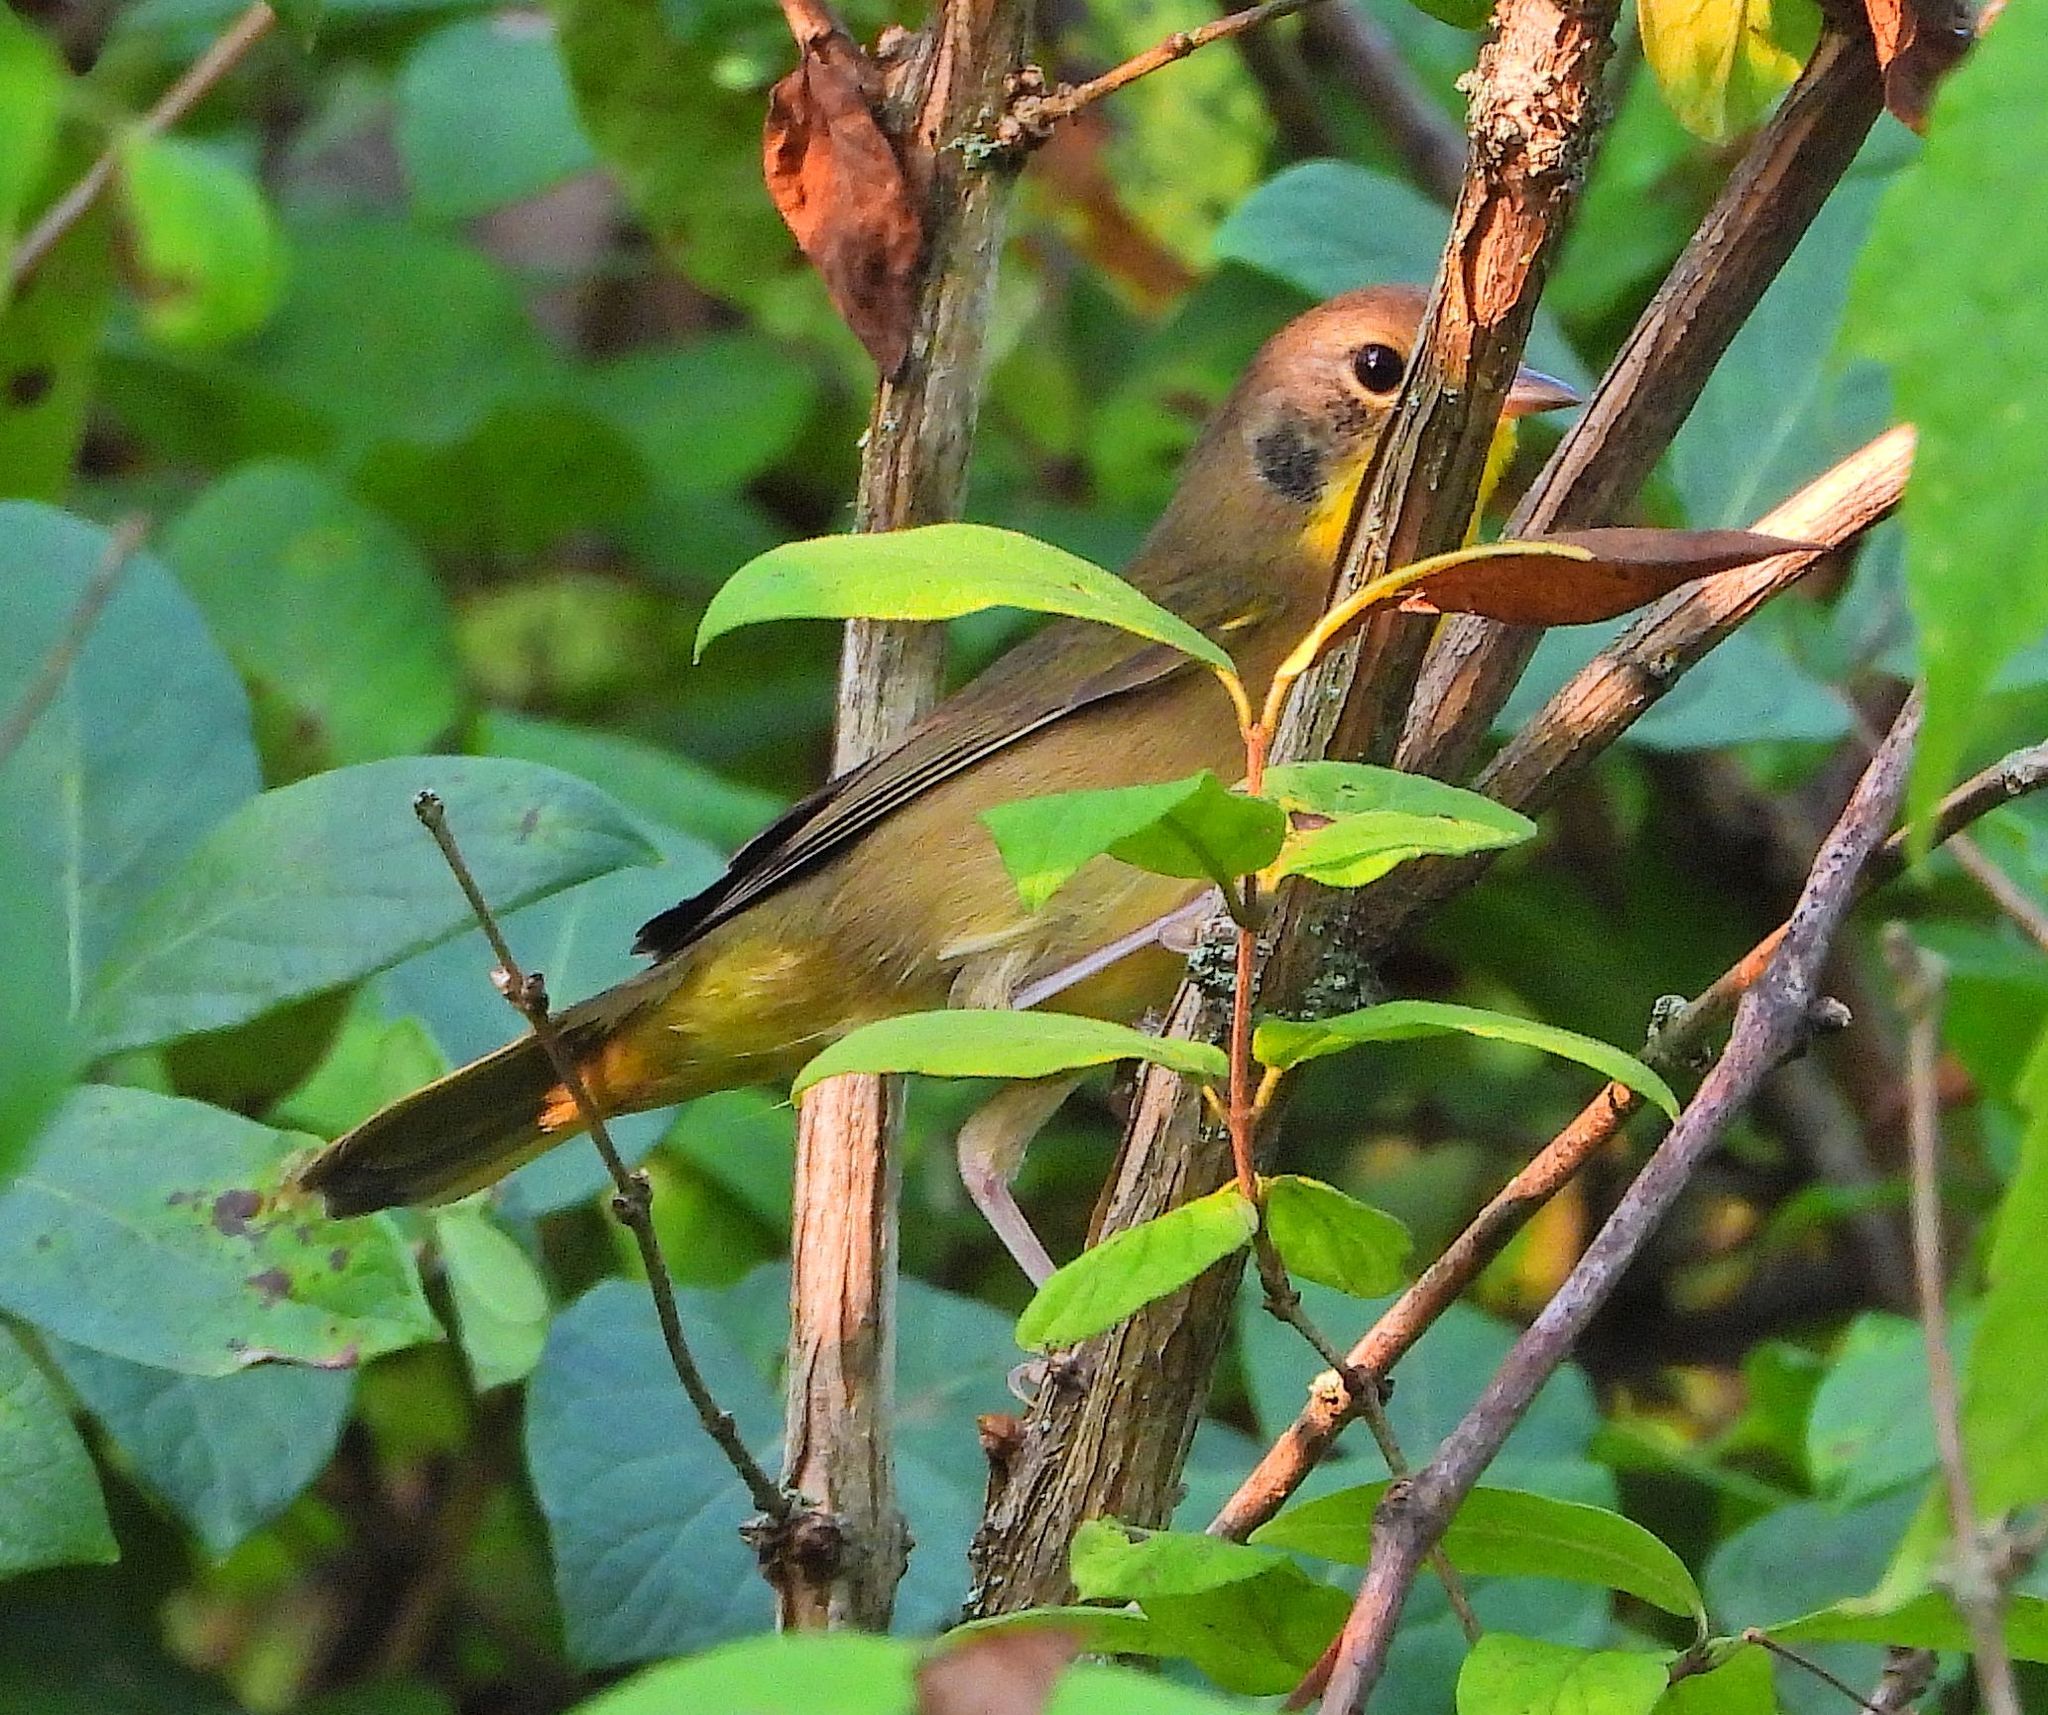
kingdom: Animalia
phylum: Chordata
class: Aves
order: Passeriformes
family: Parulidae
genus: Geothlypis
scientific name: Geothlypis trichas
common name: Common yellowthroat
